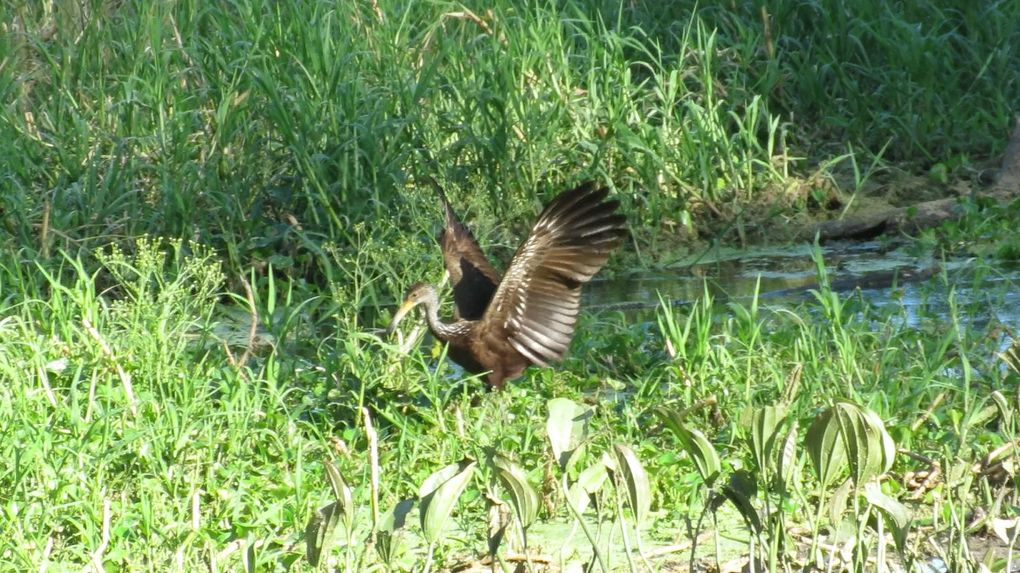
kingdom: Animalia
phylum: Chordata
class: Aves
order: Gruiformes
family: Aramidae
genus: Aramus
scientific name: Aramus guarauna
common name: Limpkin
